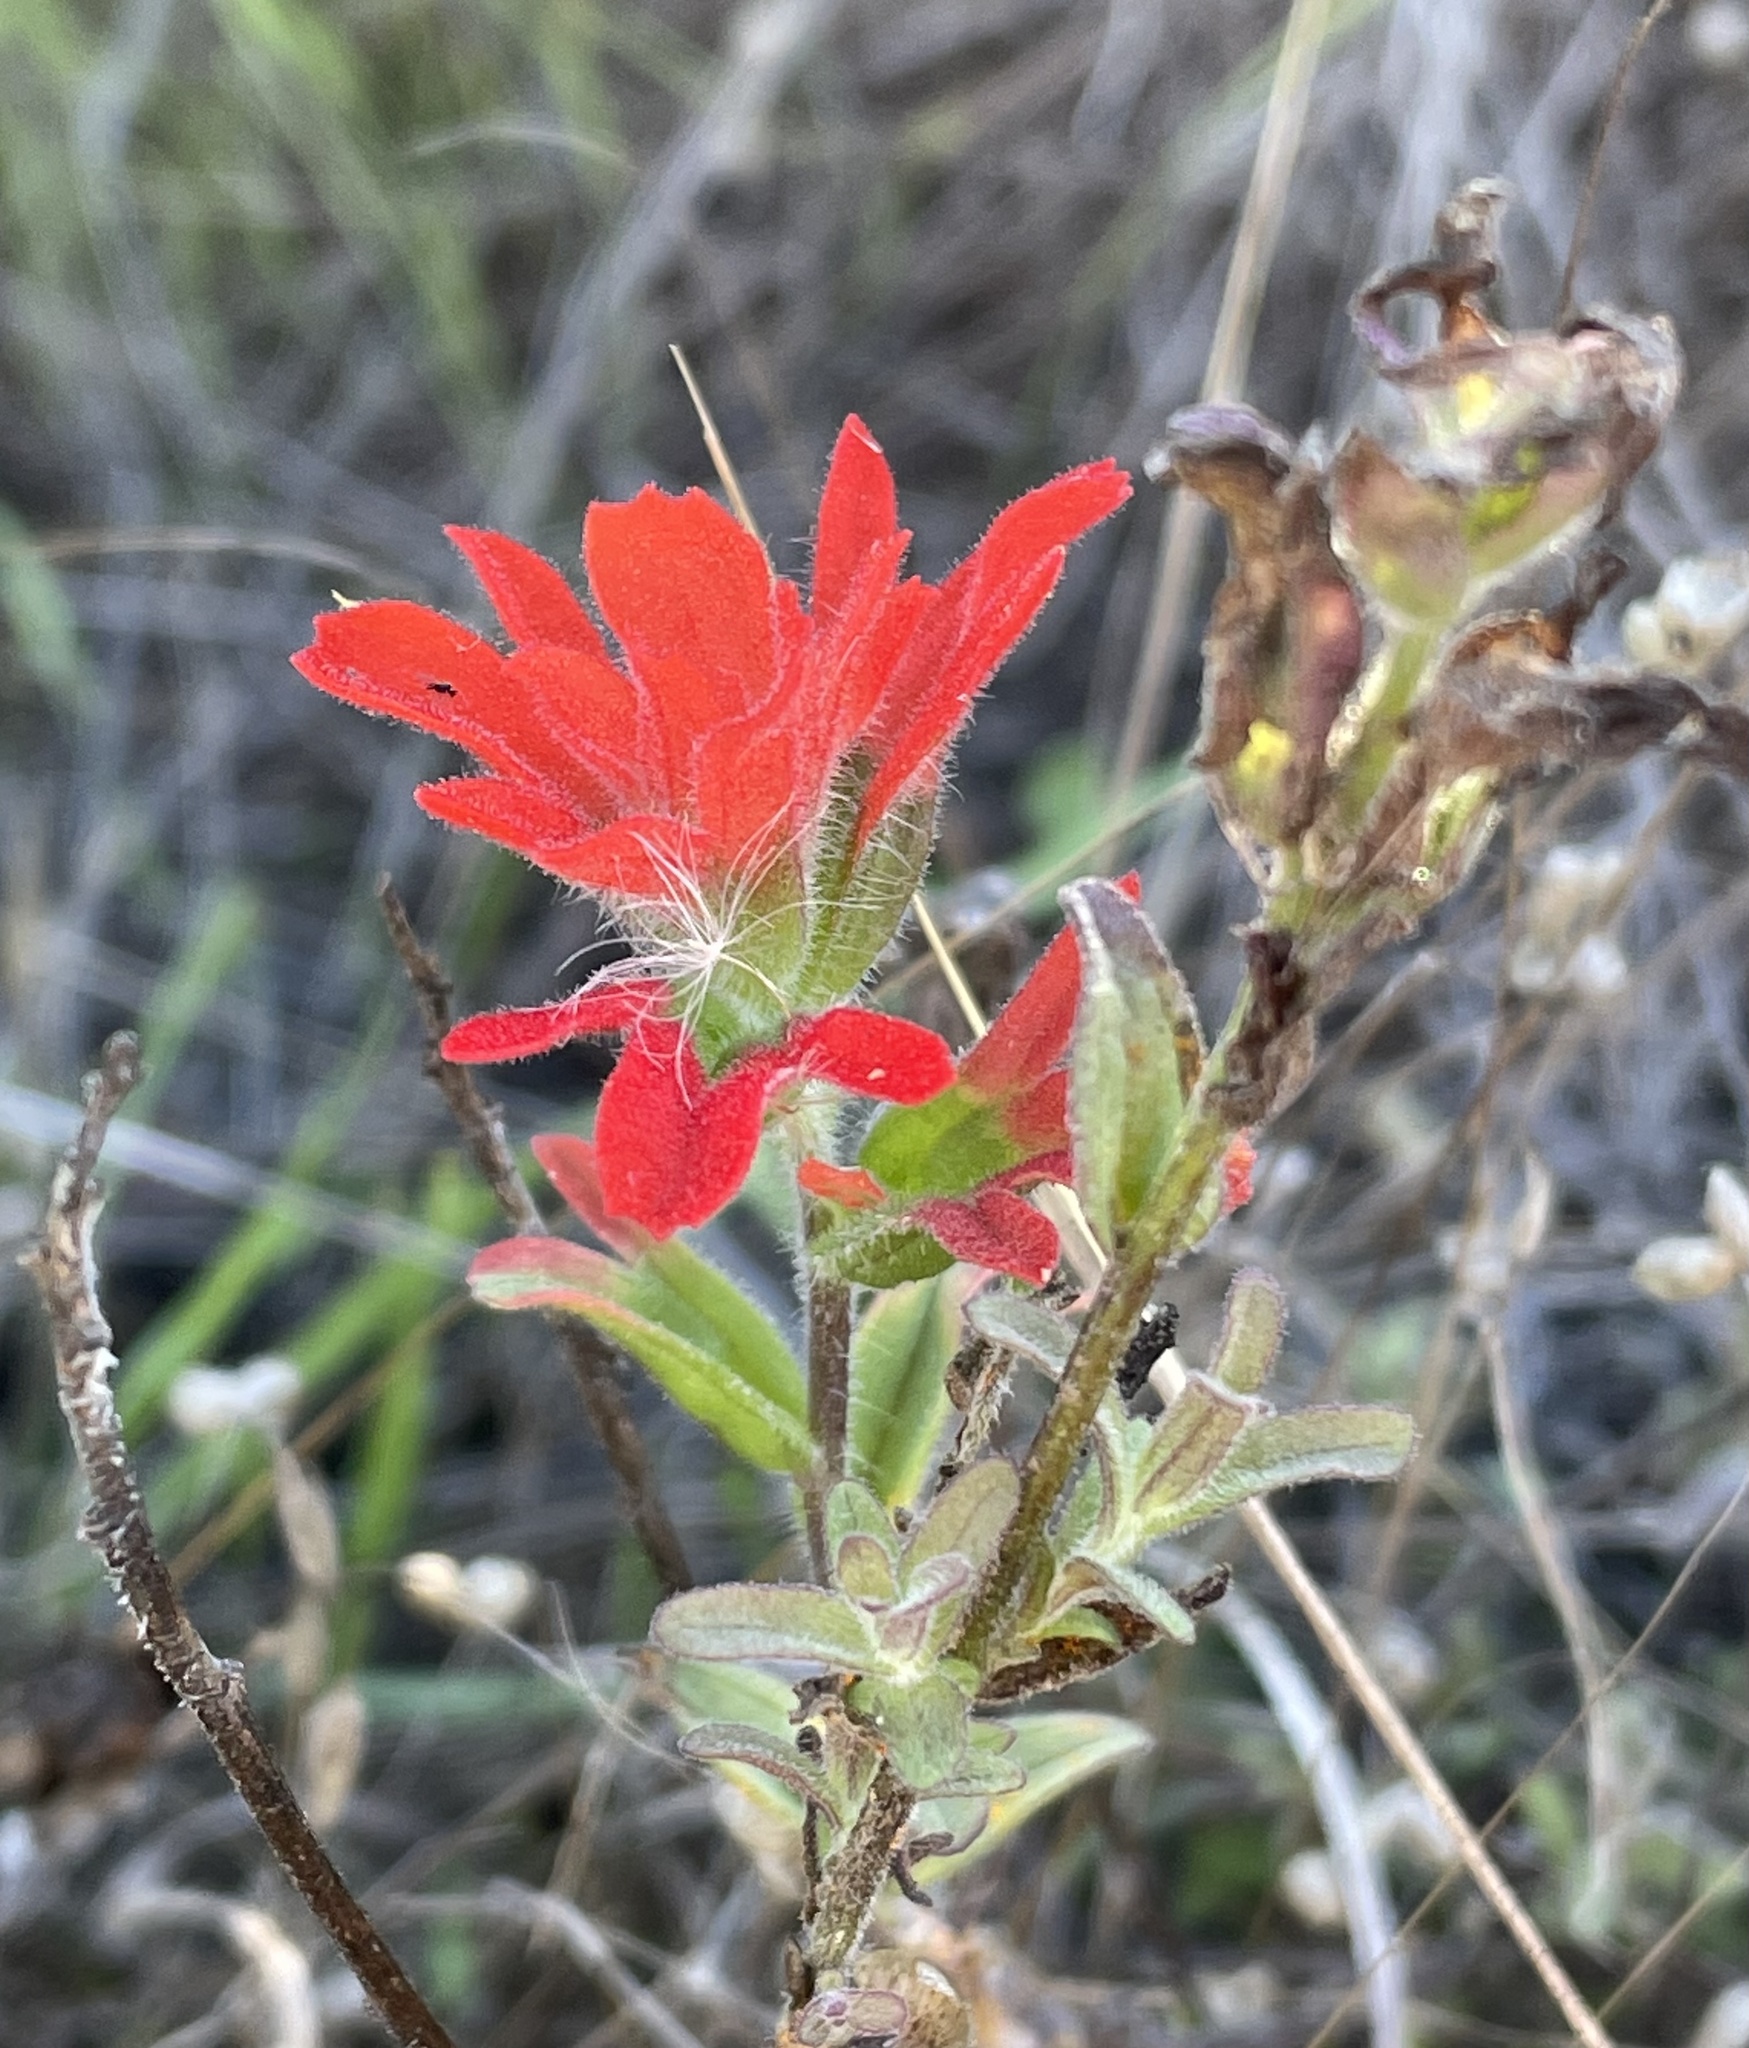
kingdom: Plantae
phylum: Tracheophyta
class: Magnoliopsida
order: Lamiales
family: Orobanchaceae
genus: Castilleja
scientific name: Castilleja affinis
